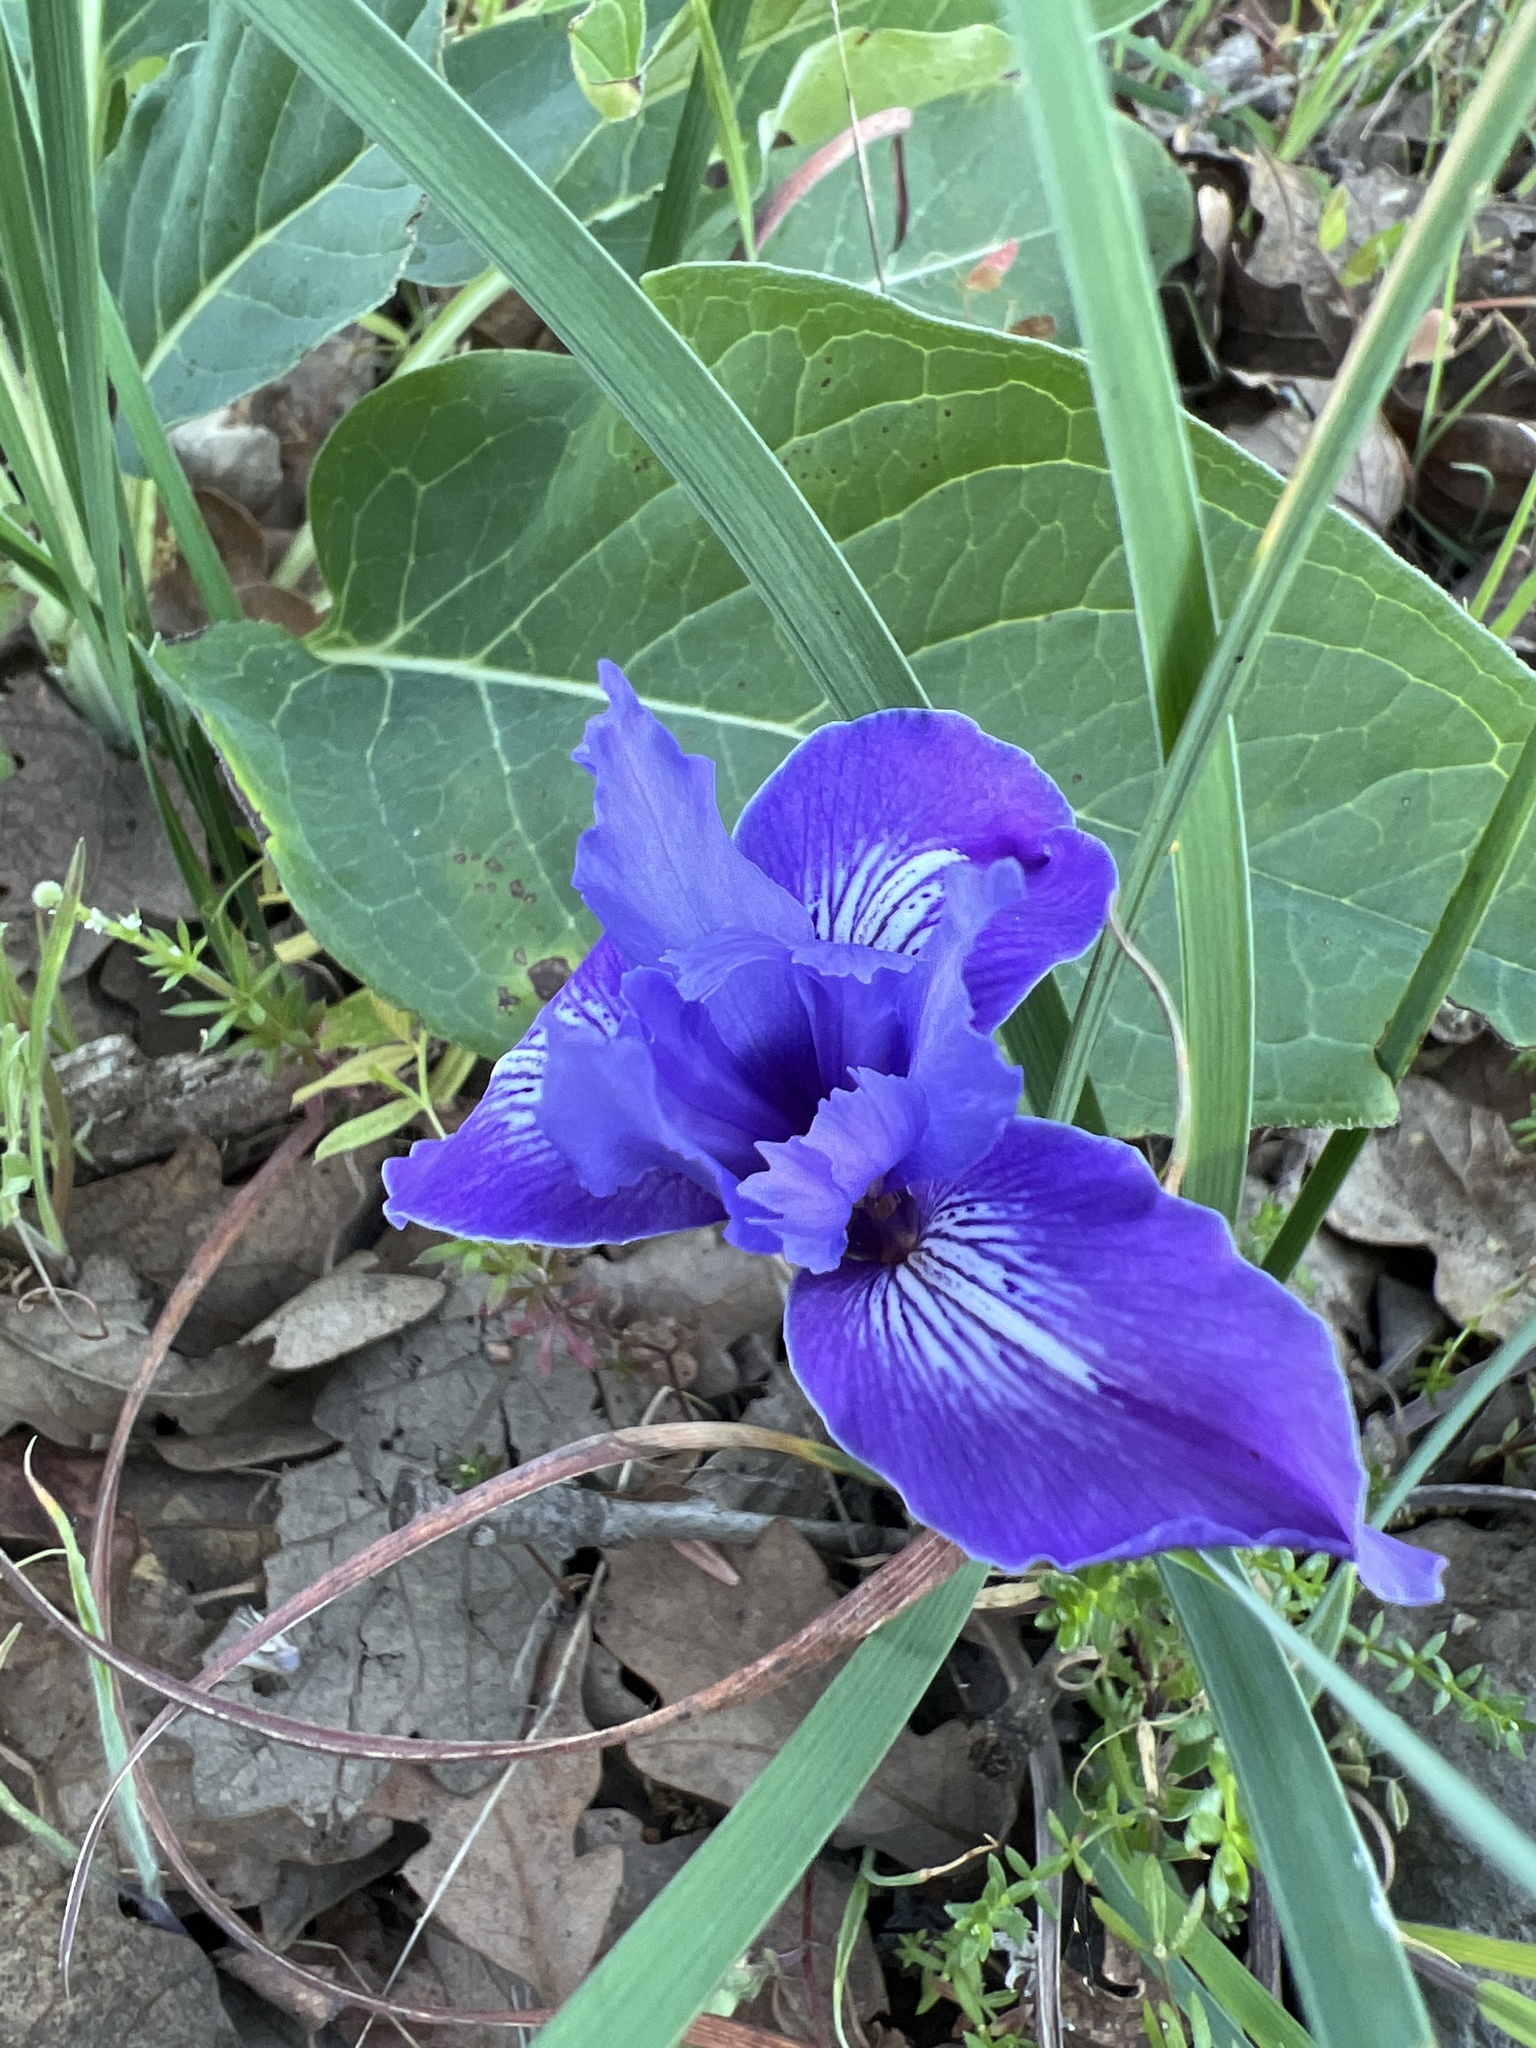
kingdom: Plantae
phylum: Tracheophyta
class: Liliopsida
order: Asparagales
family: Iridaceae
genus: Iris
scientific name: Iris macrosiphon
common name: Ground iris
